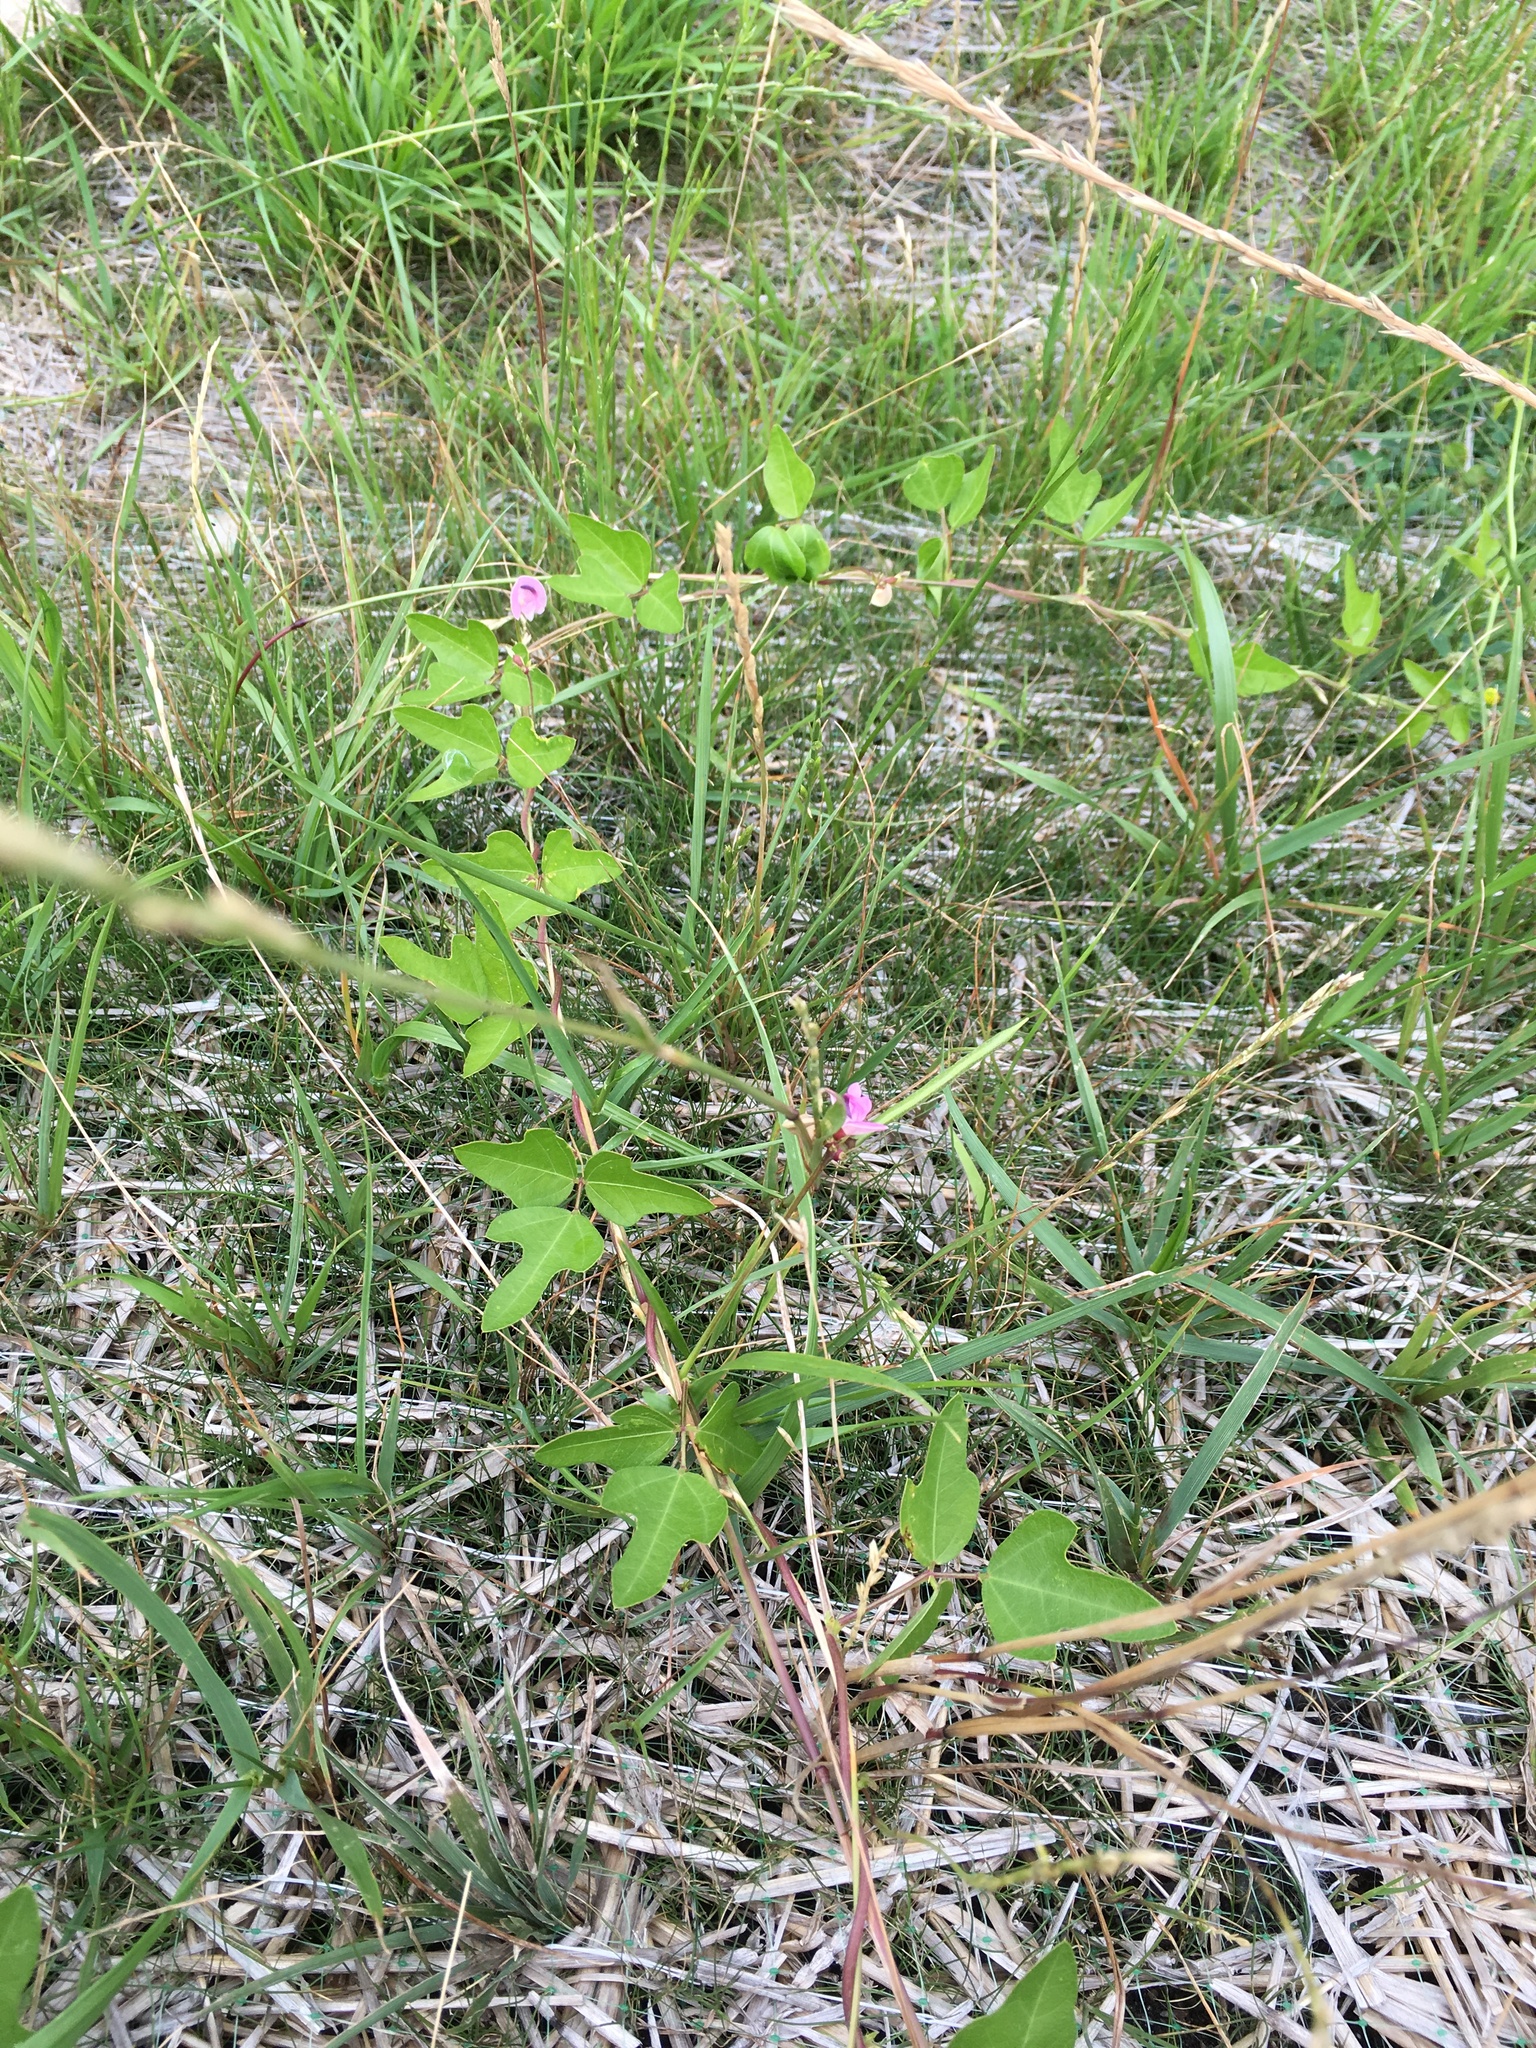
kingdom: Plantae
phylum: Tracheophyta
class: Magnoliopsida
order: Fabales
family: Fabaceae
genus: Strophostyles
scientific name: Strophostyles helvola
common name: Trailing wild bean
